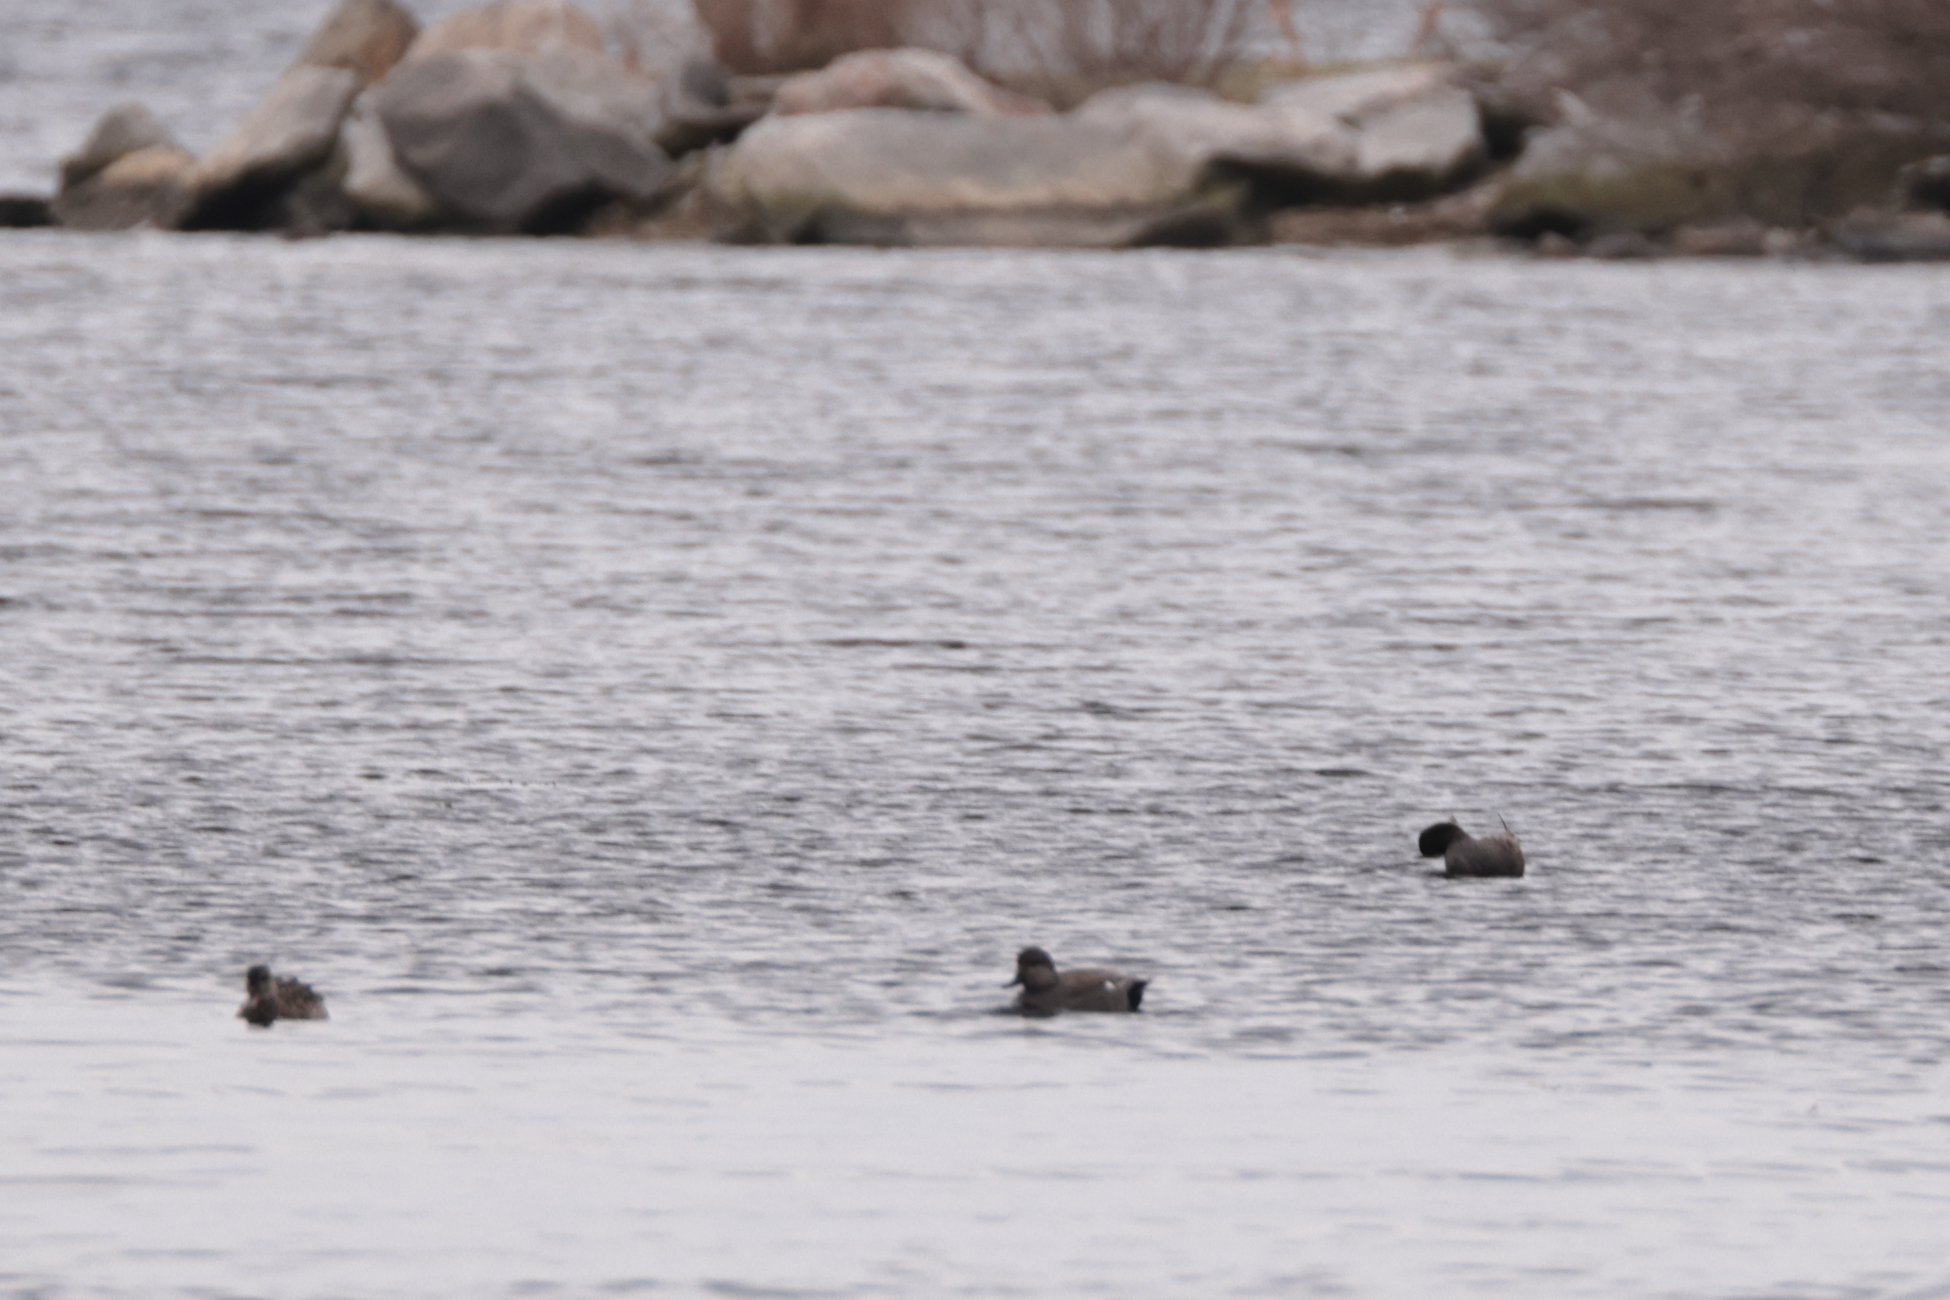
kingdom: Animalia
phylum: Chordata
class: Aves
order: Anseriformes
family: Anatidae
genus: Mareca
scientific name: Mareca strepera
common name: Gadwall
